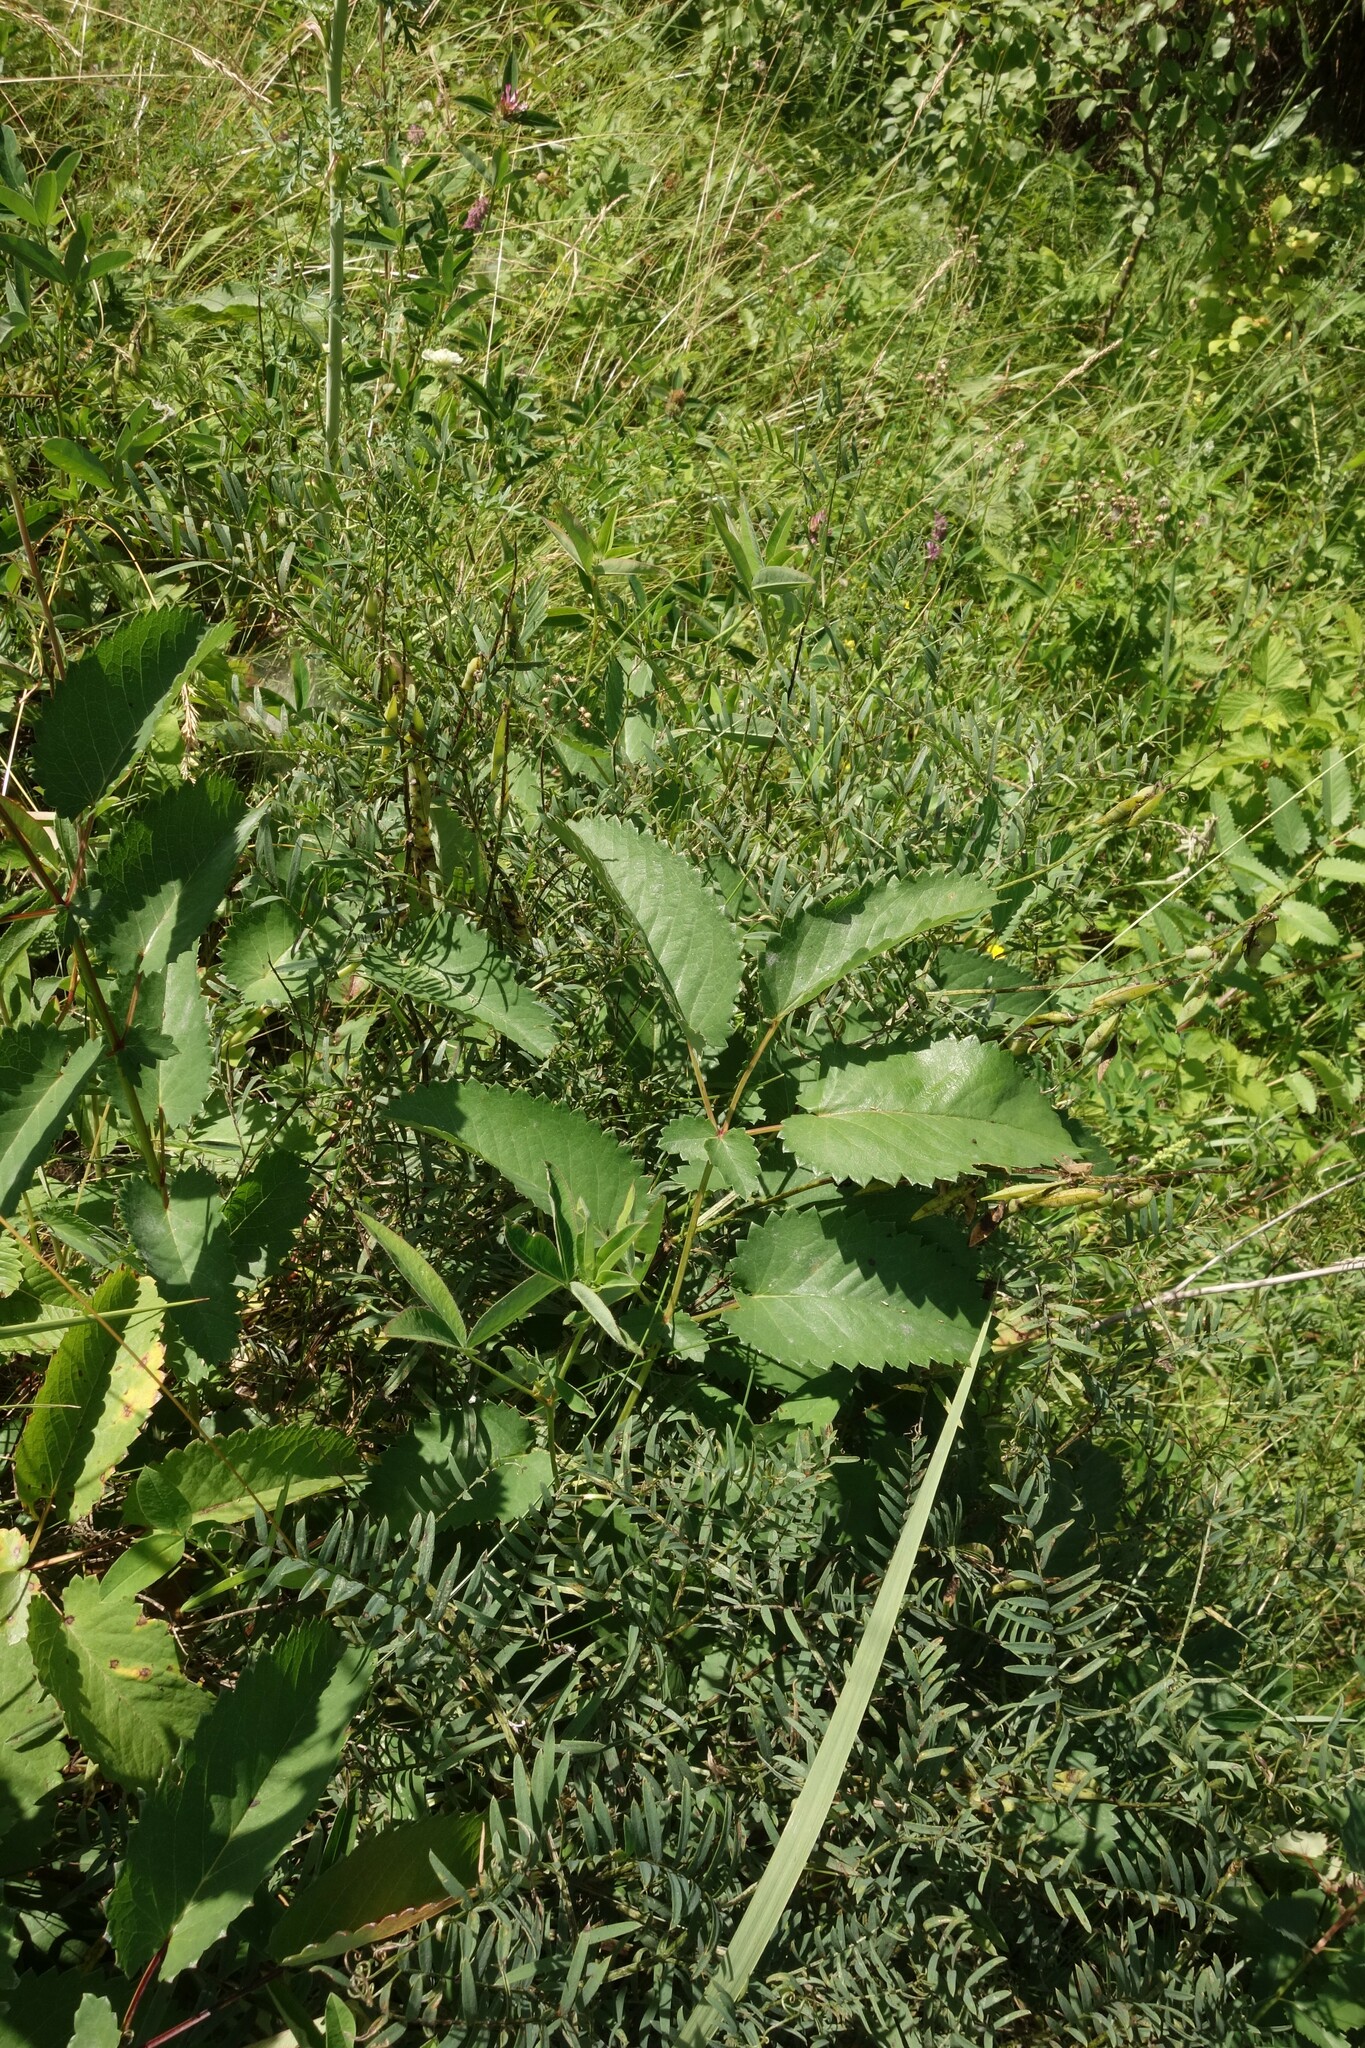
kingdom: Plantae
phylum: Tracheophyta
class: Magnoliopsida
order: Rosales
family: Rosaceae
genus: Sanguisorba
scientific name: Sanguisorba officinalis
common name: Great burnet
